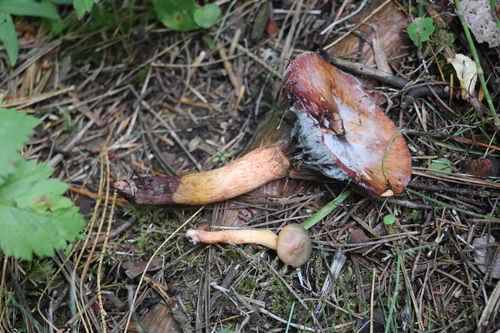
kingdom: Fungi
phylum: Basidiomycota
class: Agaricomycetes
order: Boletales
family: Gomphidiaceae
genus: Chroogomphus
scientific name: Chroogomphus rutilus
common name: Copper spike
